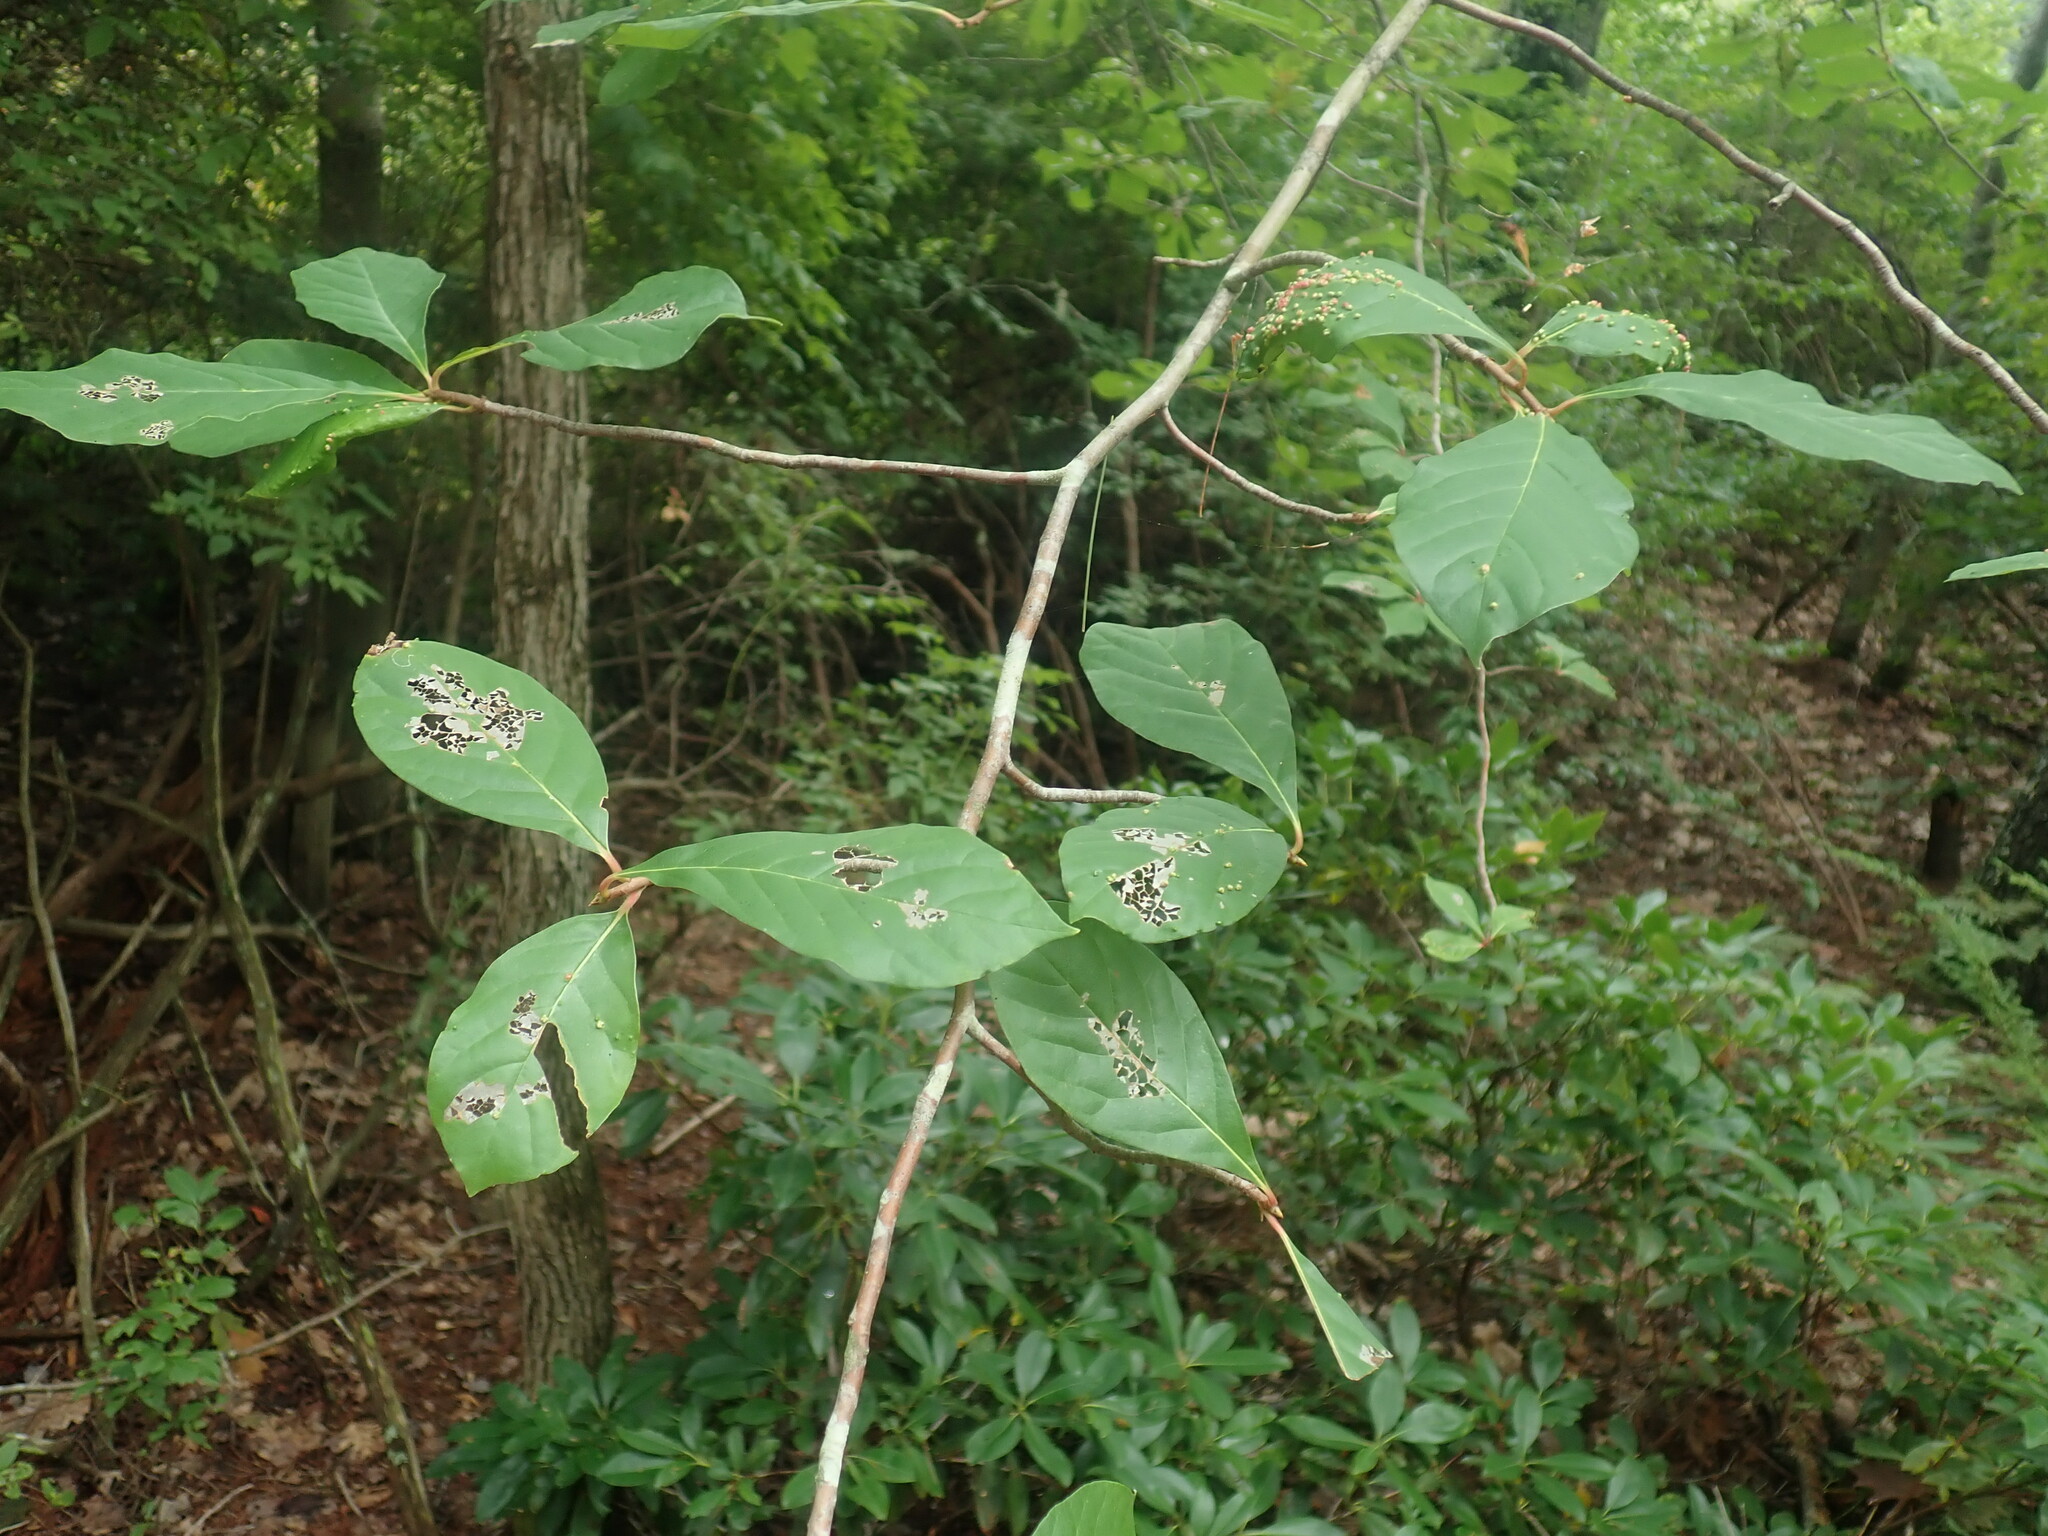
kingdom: Plantae
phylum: Tracheophyta
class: Magnoliopsida
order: Cornales
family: Nyssaceae
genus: Nyssa
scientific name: Nyssa sylvatica
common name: Black tupelo
